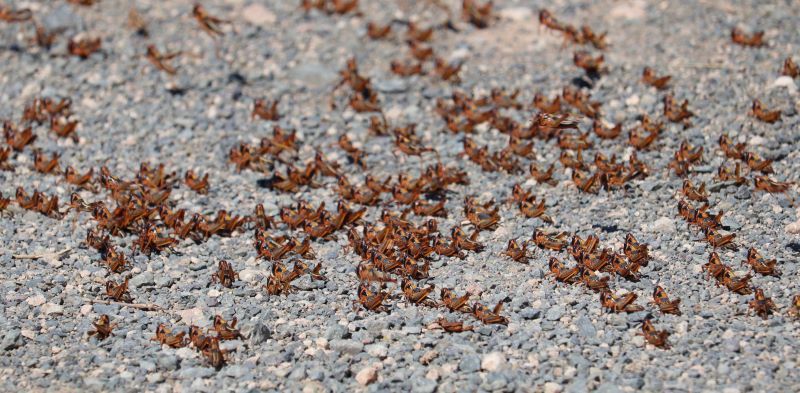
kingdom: Animalia
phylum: Arthropoda
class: Insecta
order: Orthoptera
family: Acrididae
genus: Locustana
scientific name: Locustana pardalina
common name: Brown locust
